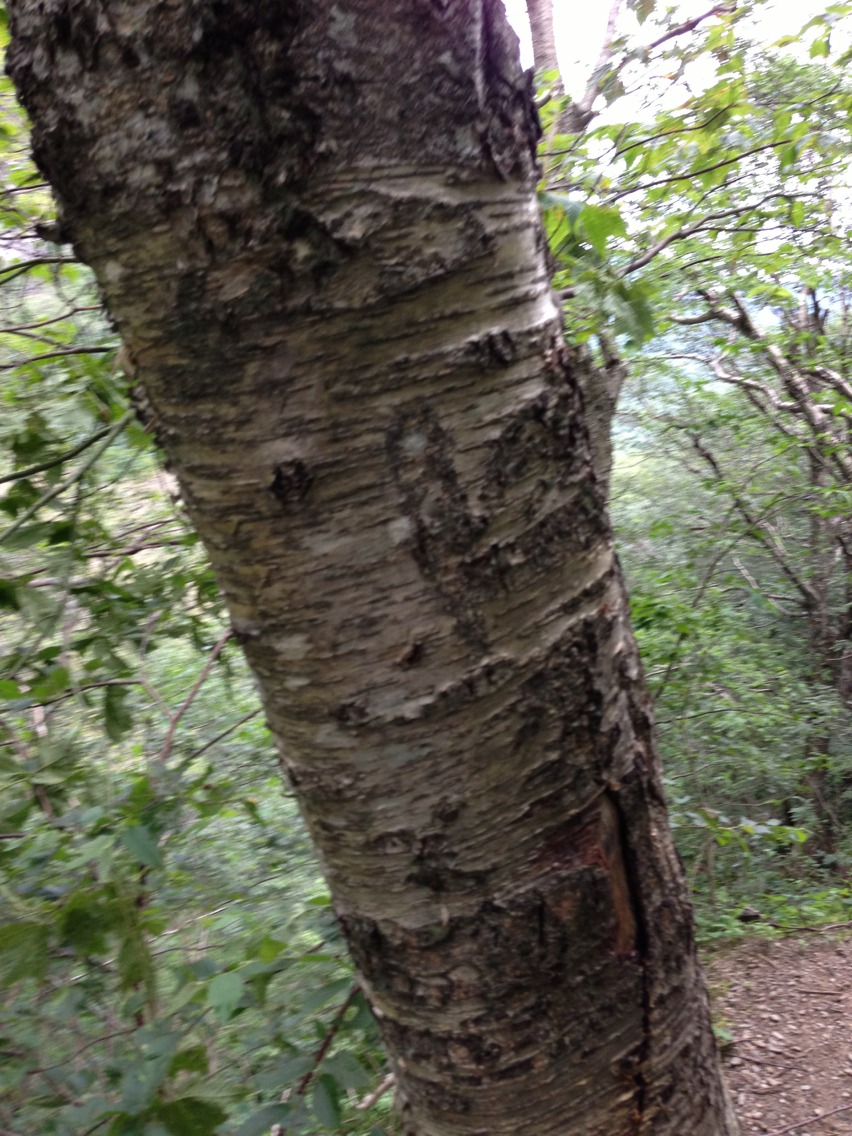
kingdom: Plantae
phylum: Tracheophyta
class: Magnoliopsida
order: Fagales
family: Betulaceae
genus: Betula
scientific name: Betula alleghaniensis
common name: Yellow birch
